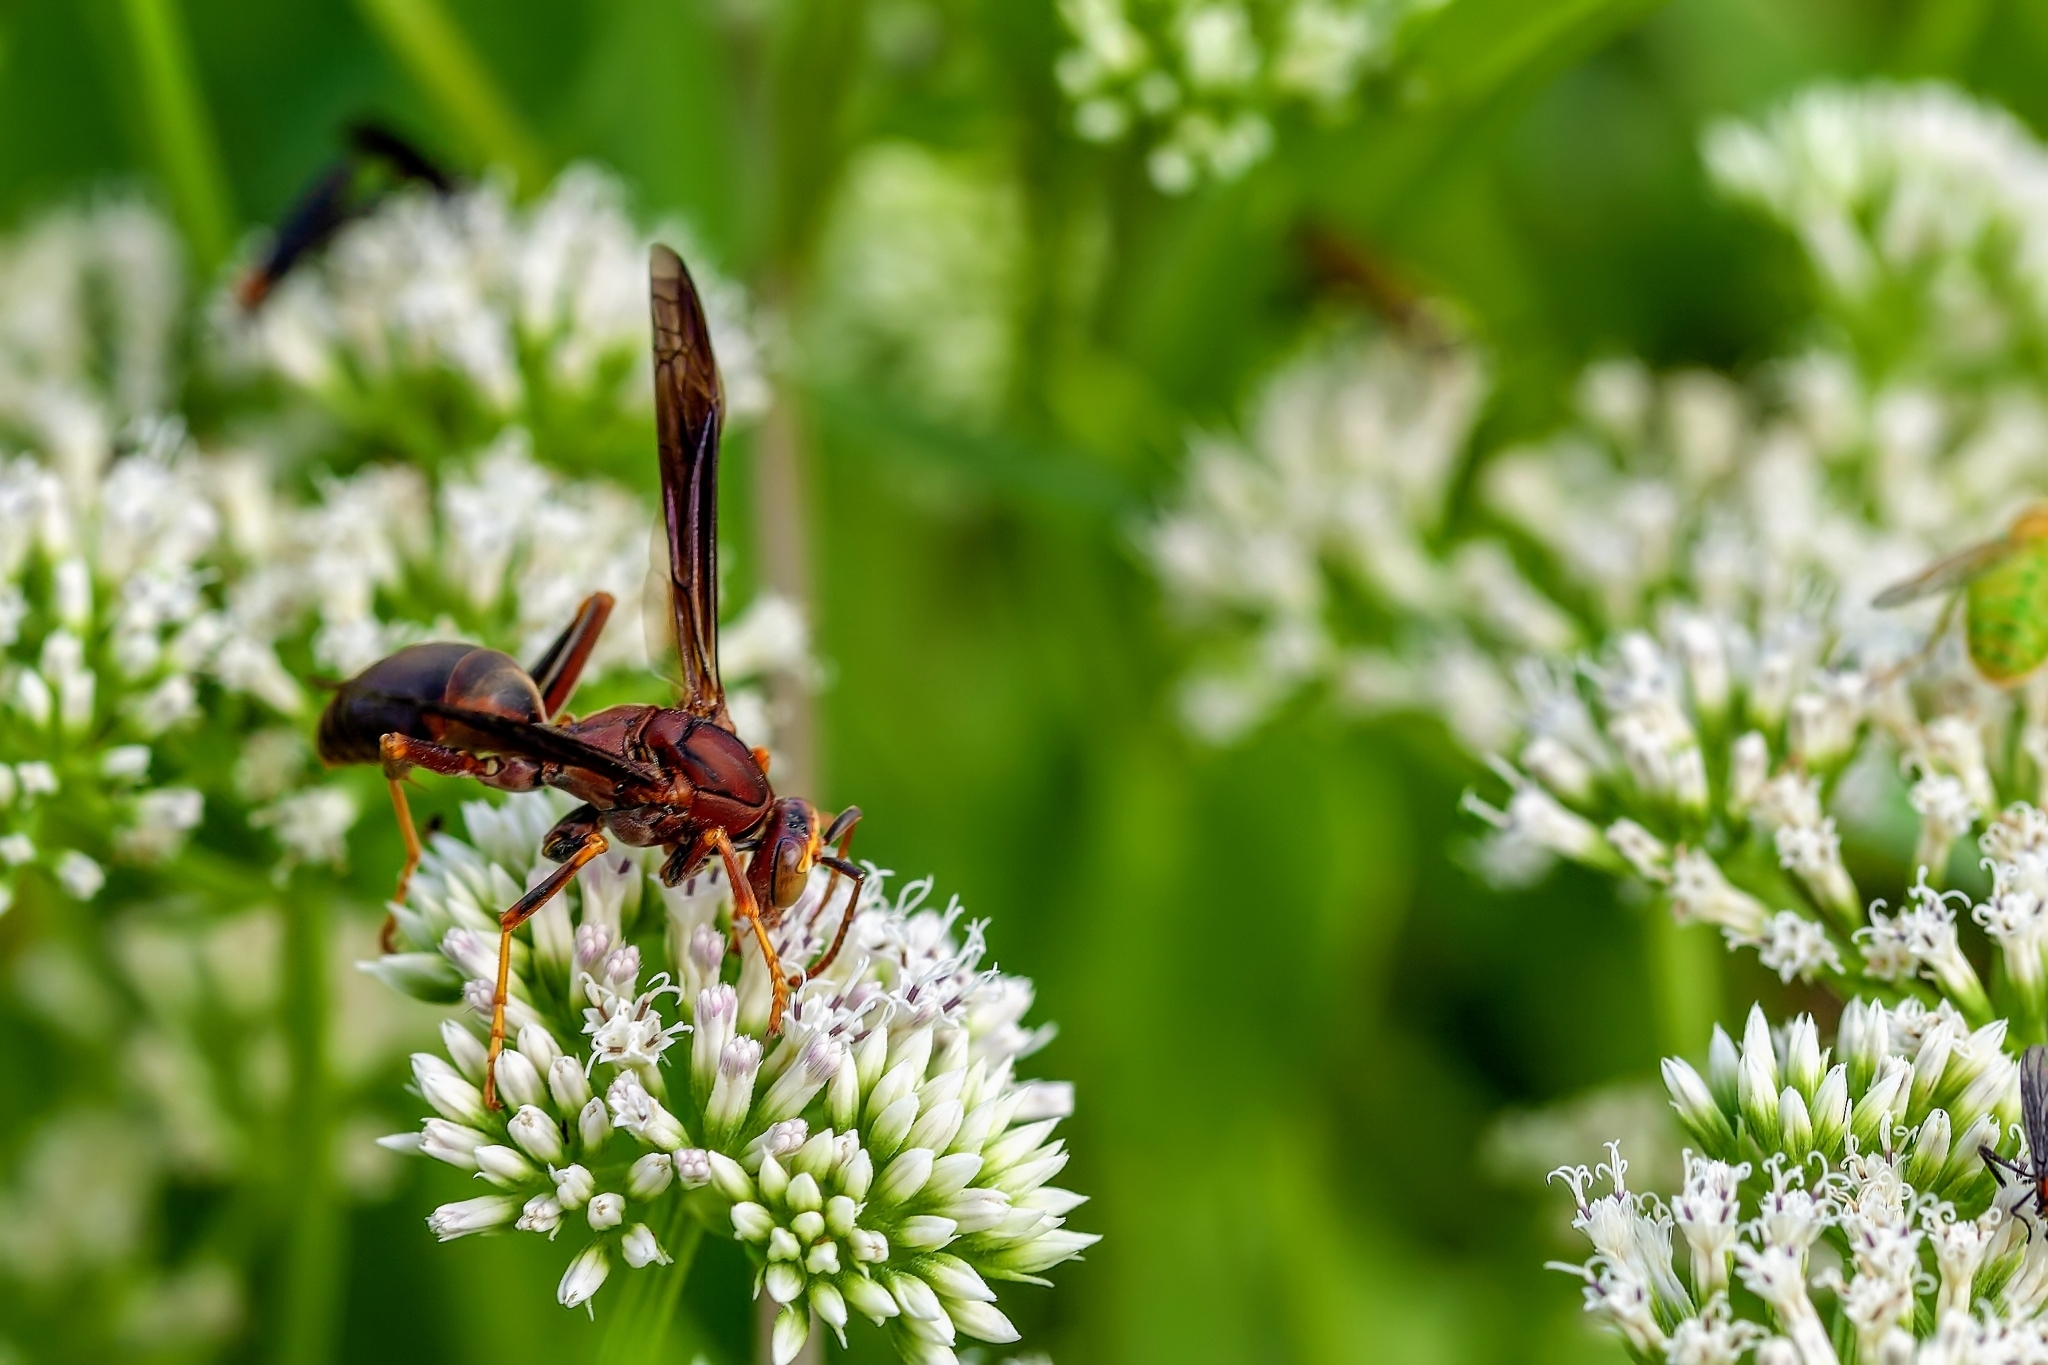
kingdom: Animalia
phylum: Arthropoda
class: Insecta
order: Hymenoptera
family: Eumenidae
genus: Polistes
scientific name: Polistes metricus
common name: Metric paper wasp
